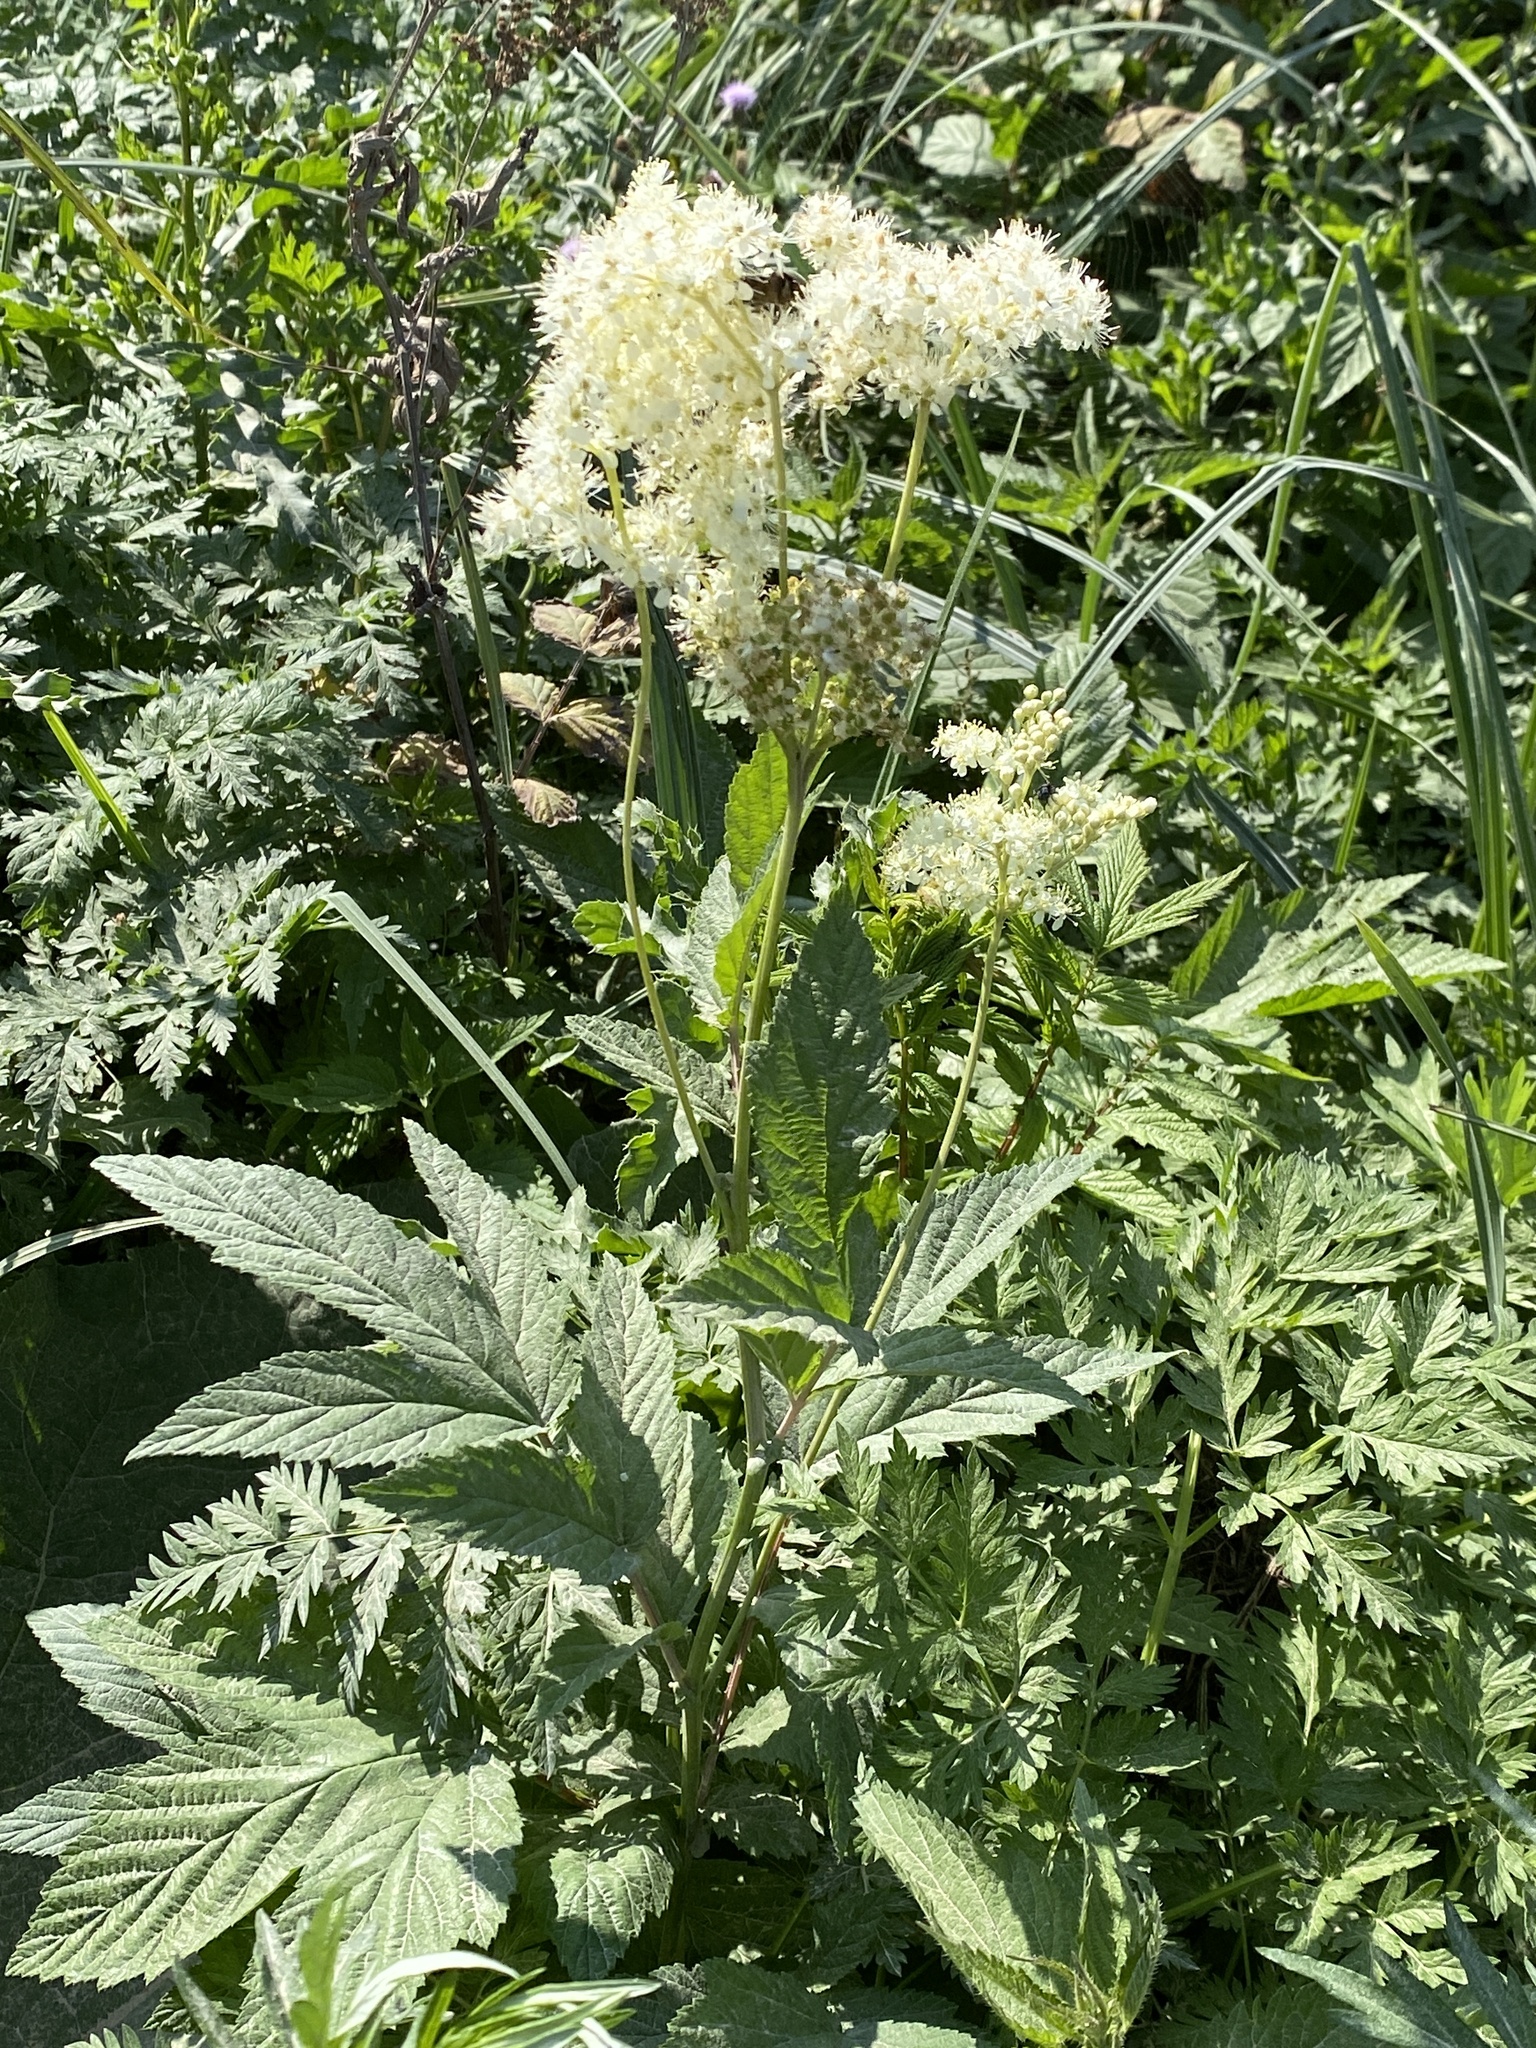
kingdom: Plantae
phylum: Tracheophyta
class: Magnoliopsida
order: Rosales
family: Rosaceae
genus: Filipendula
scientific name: Filipendula ulmaria
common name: Meadowsweet
